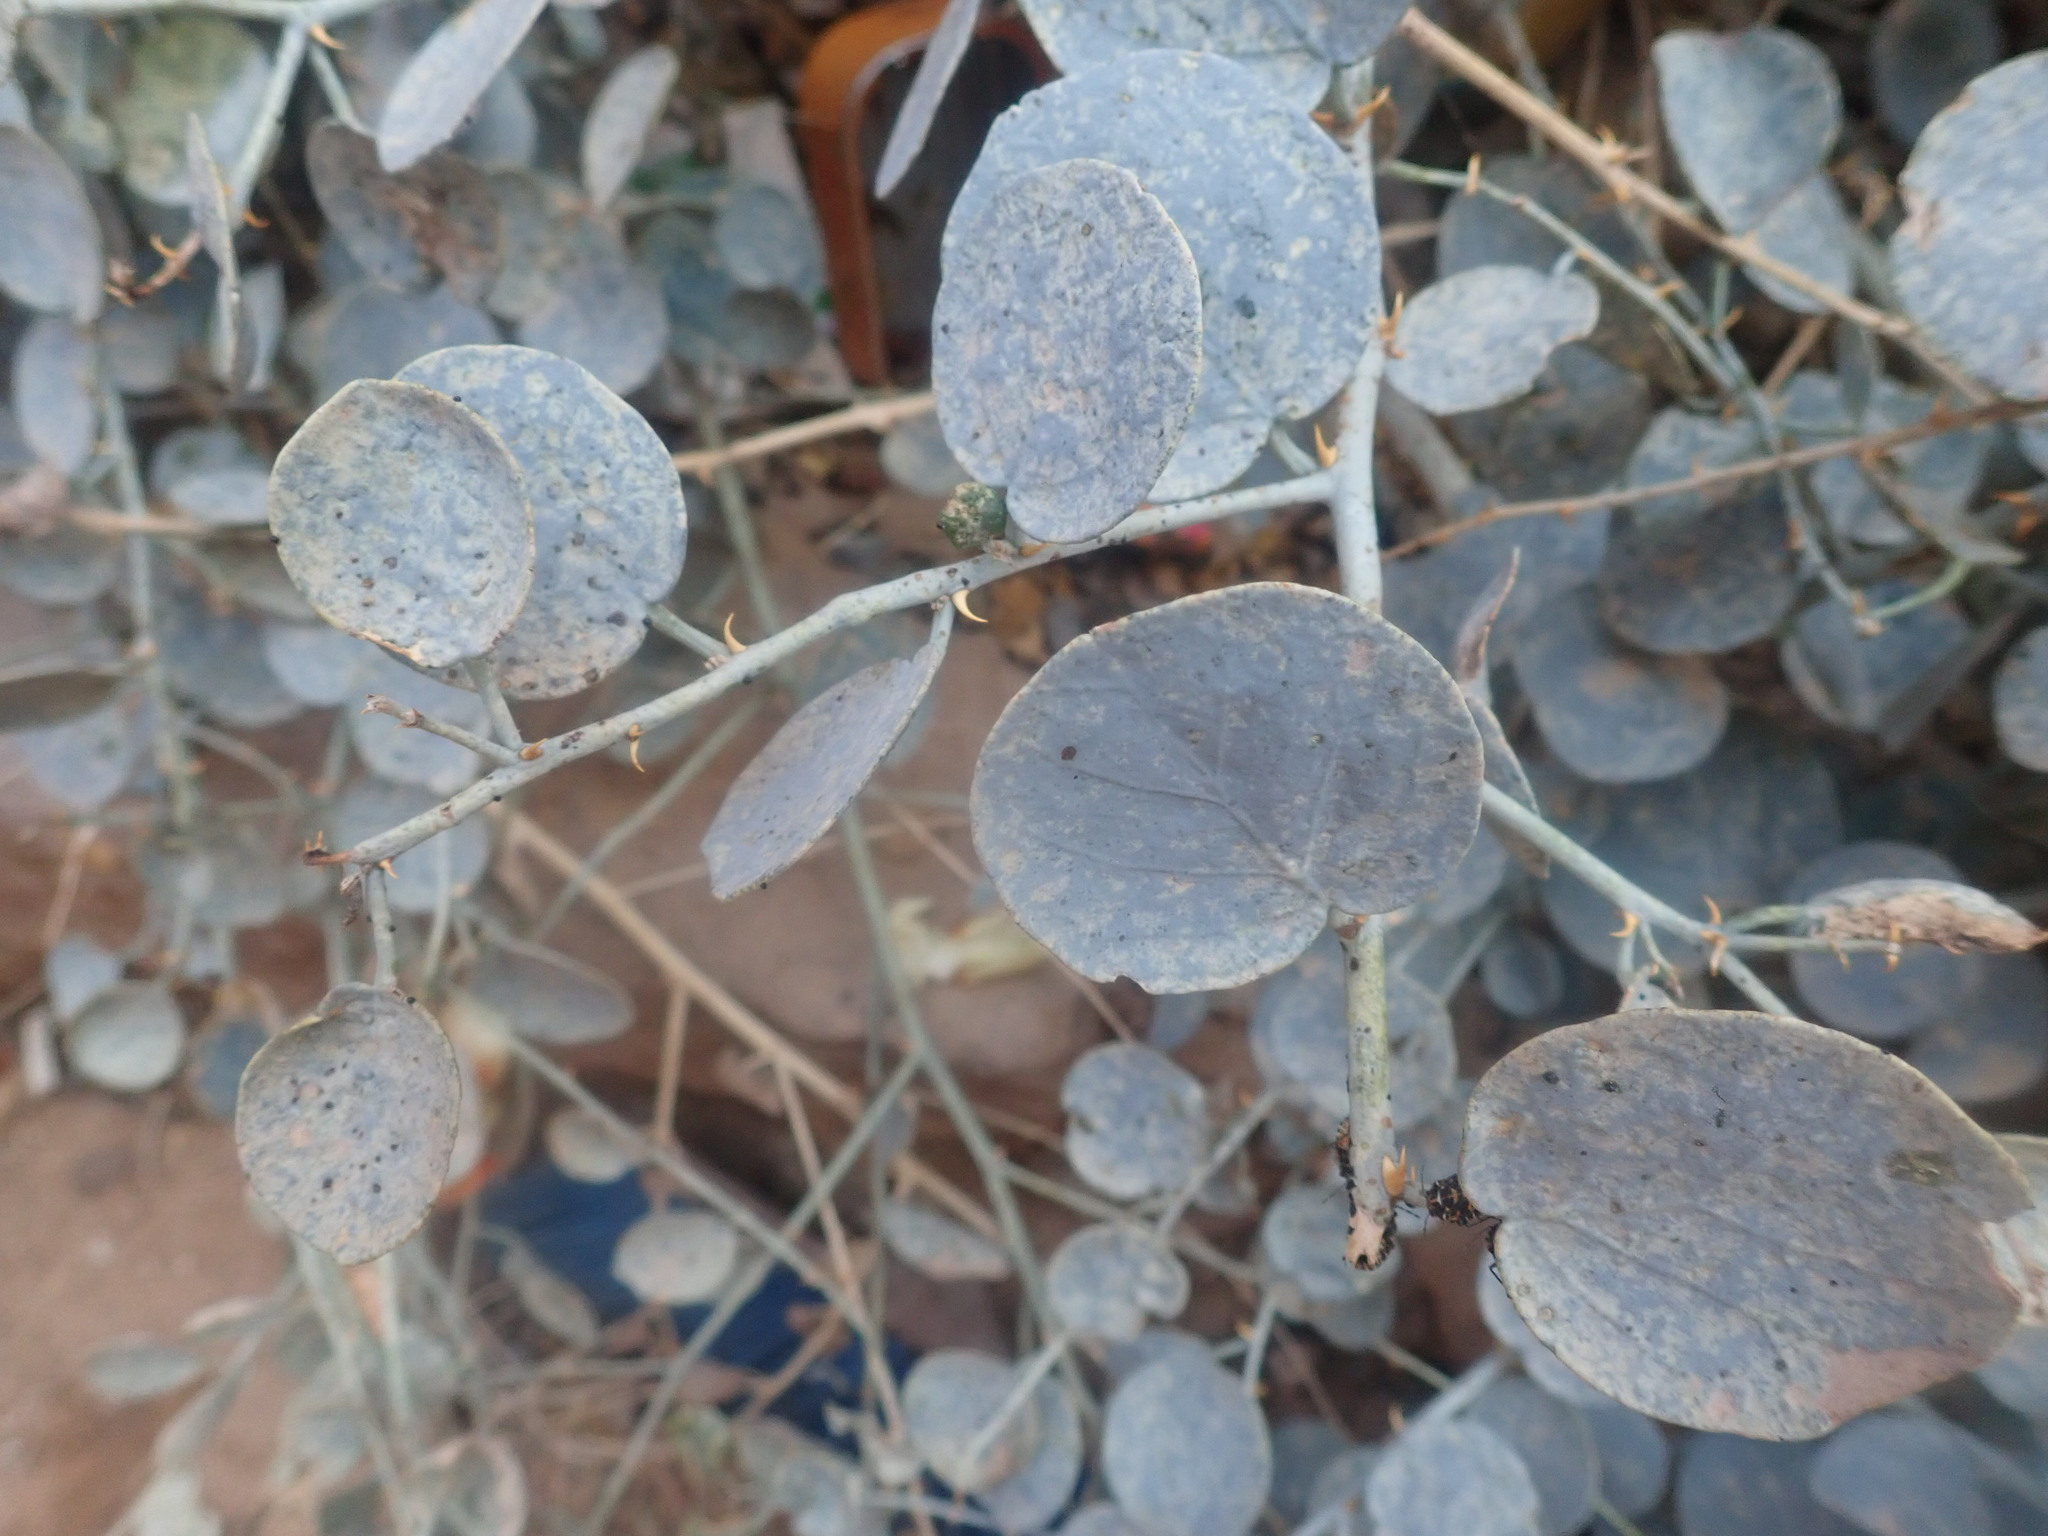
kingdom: Plantae
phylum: Tracheophyta
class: Magnoliopsida
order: Brassicales
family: Capparaceae
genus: Capparis
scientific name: Capparis spinosa
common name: Caper
